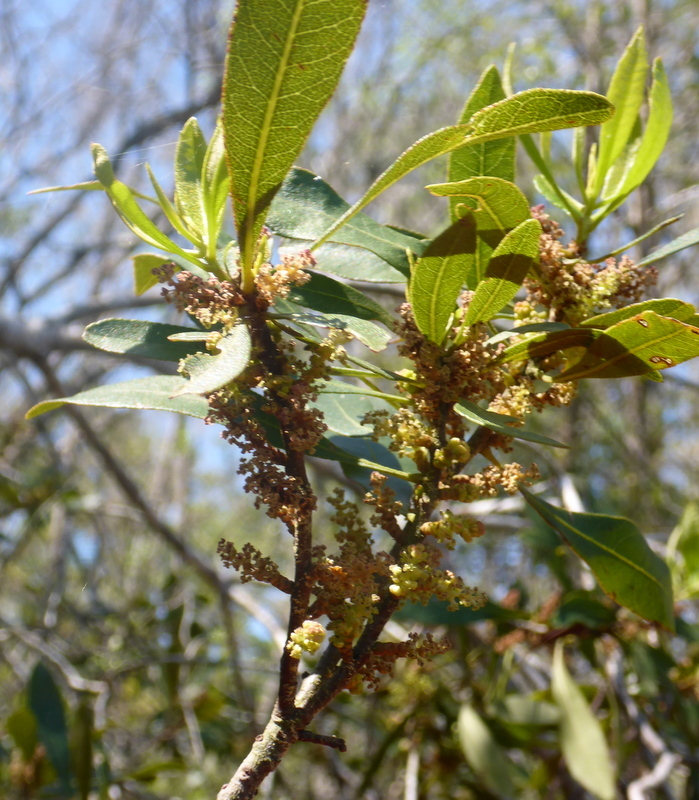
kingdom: Plantae
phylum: Tracheophyta
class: Magnoliopsida
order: Fagales
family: Myricaceae
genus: Morella
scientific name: Morella cerifera
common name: Wax myrtle
